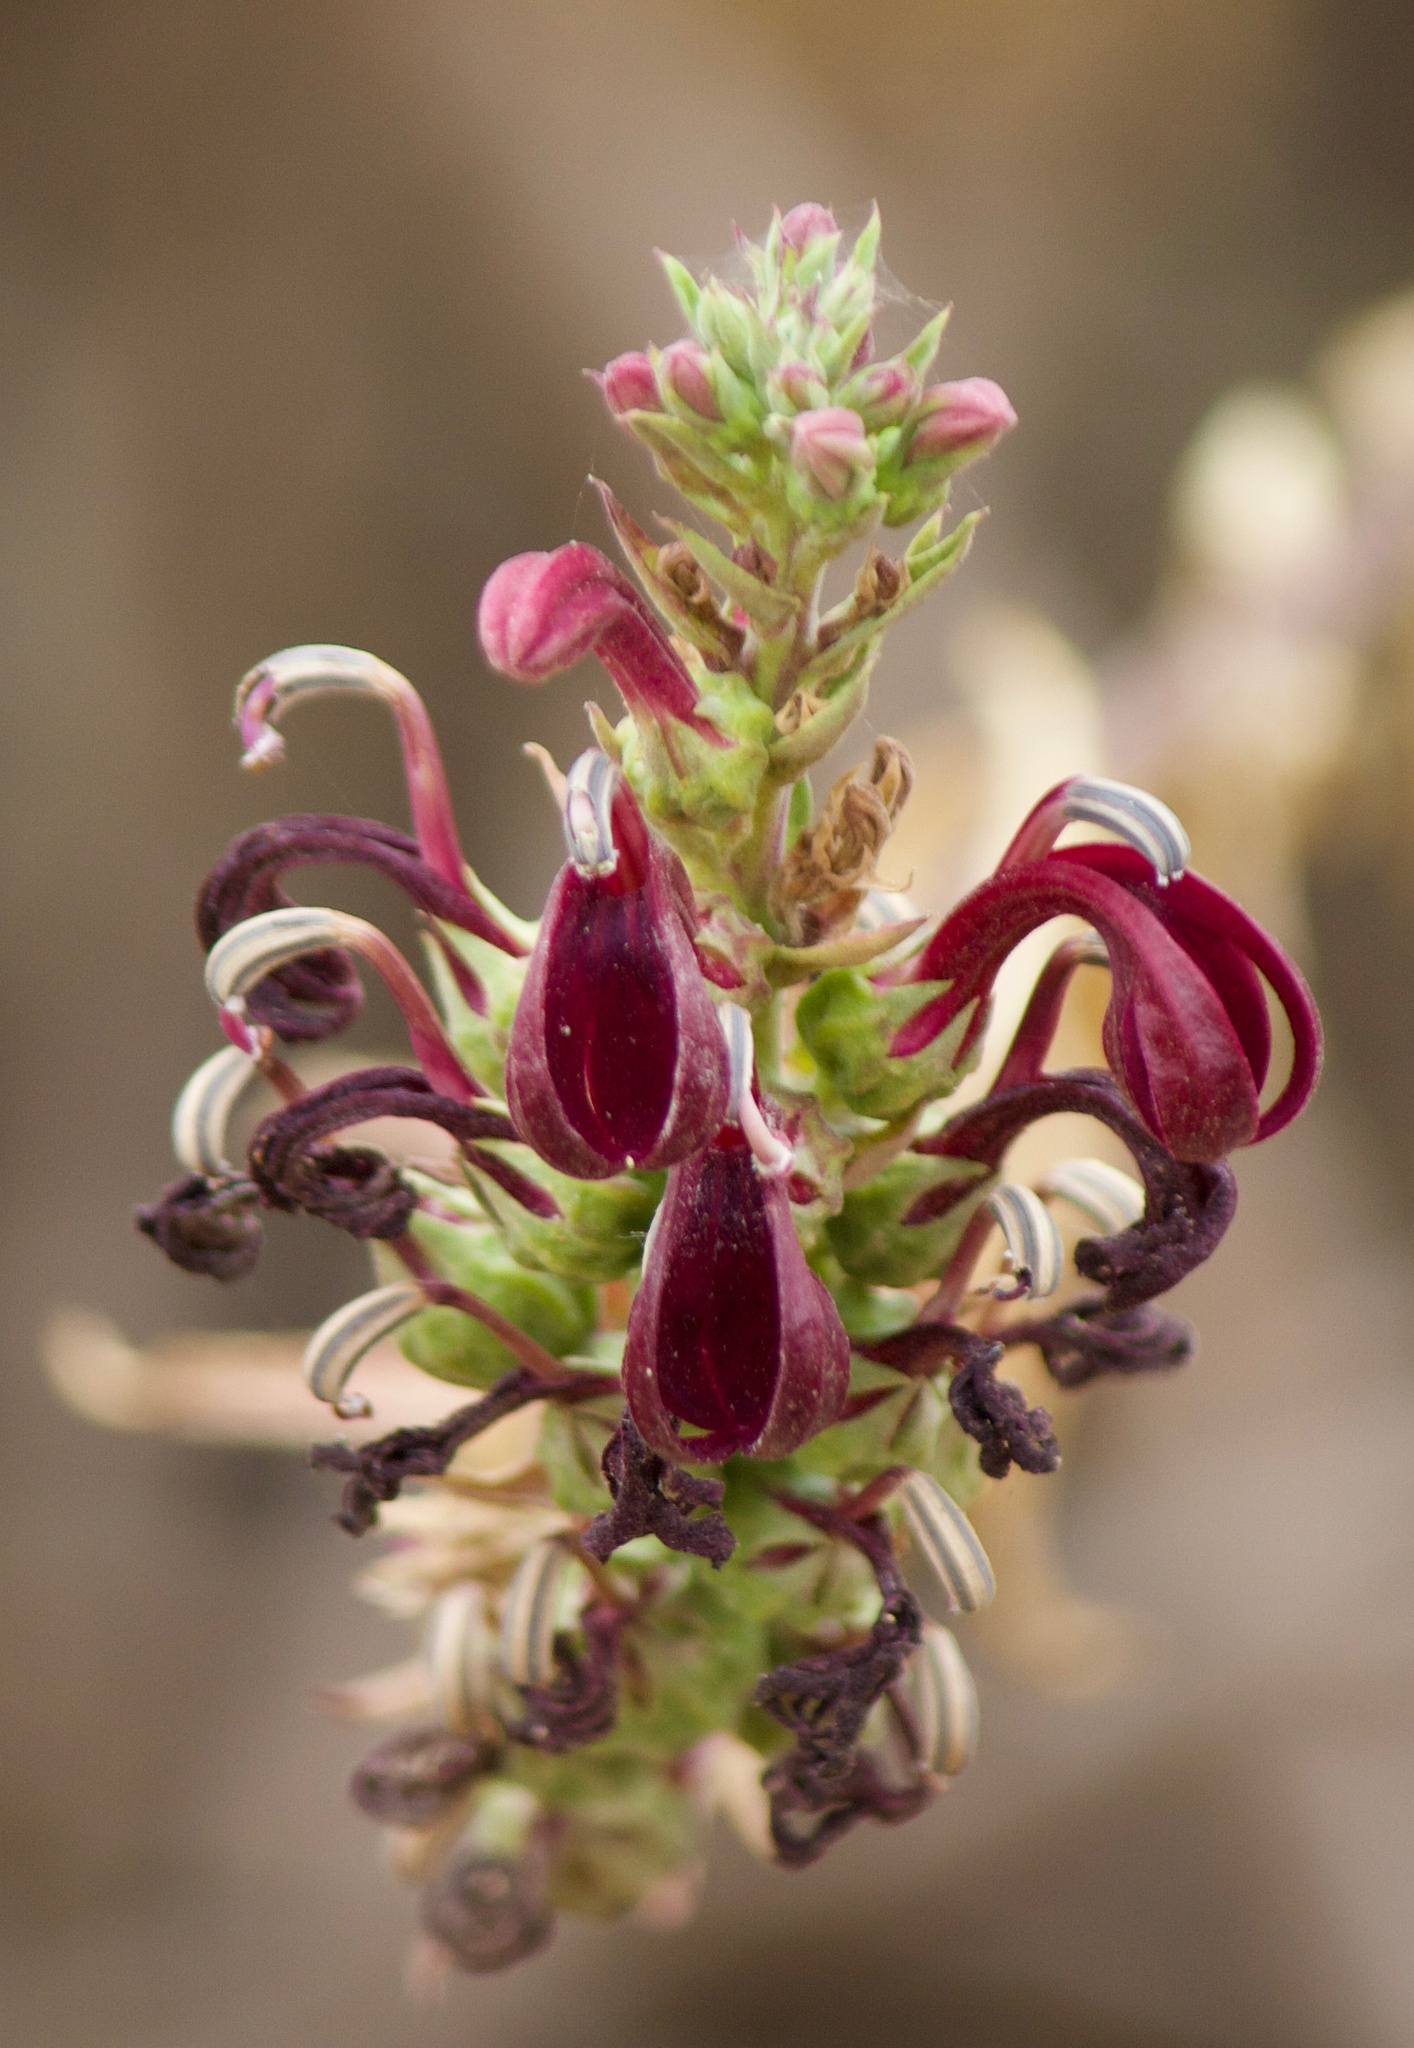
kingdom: Plantae
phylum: Tracheophyta
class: Magnoliopsida
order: Asterales
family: Campanulaceae
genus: Lobelia
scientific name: Lobelia polyphylla
